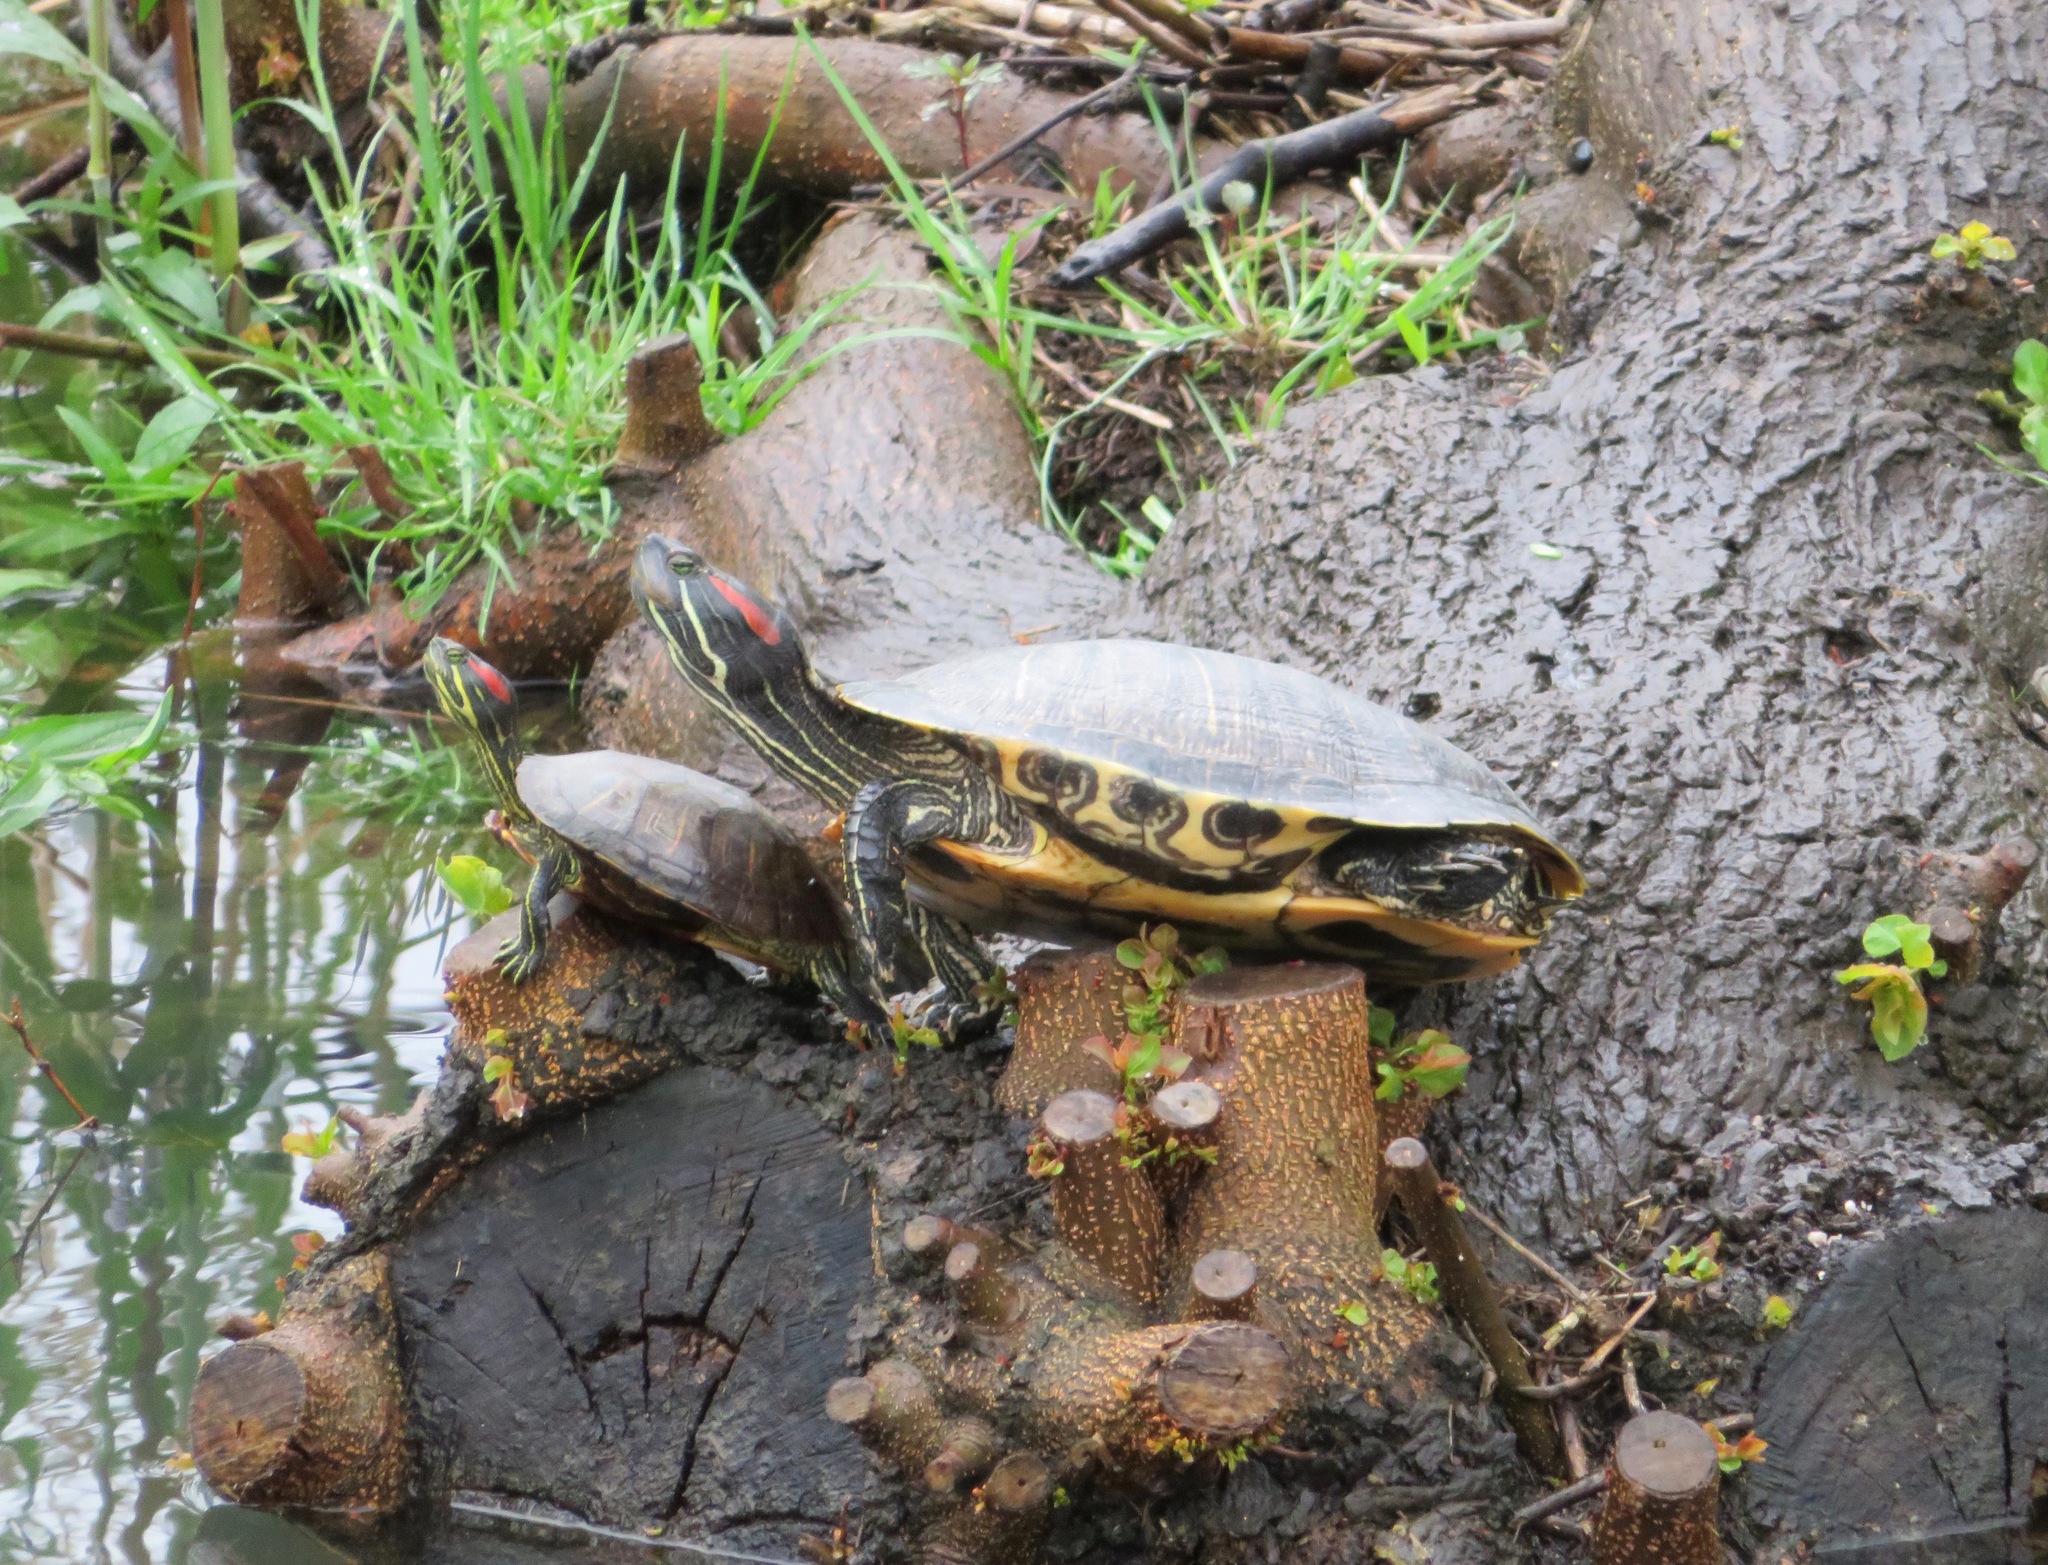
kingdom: Animalia
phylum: Chordata
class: Testudines
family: Emydidae
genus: Trachemys
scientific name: Trachemys scripta
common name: Slider
